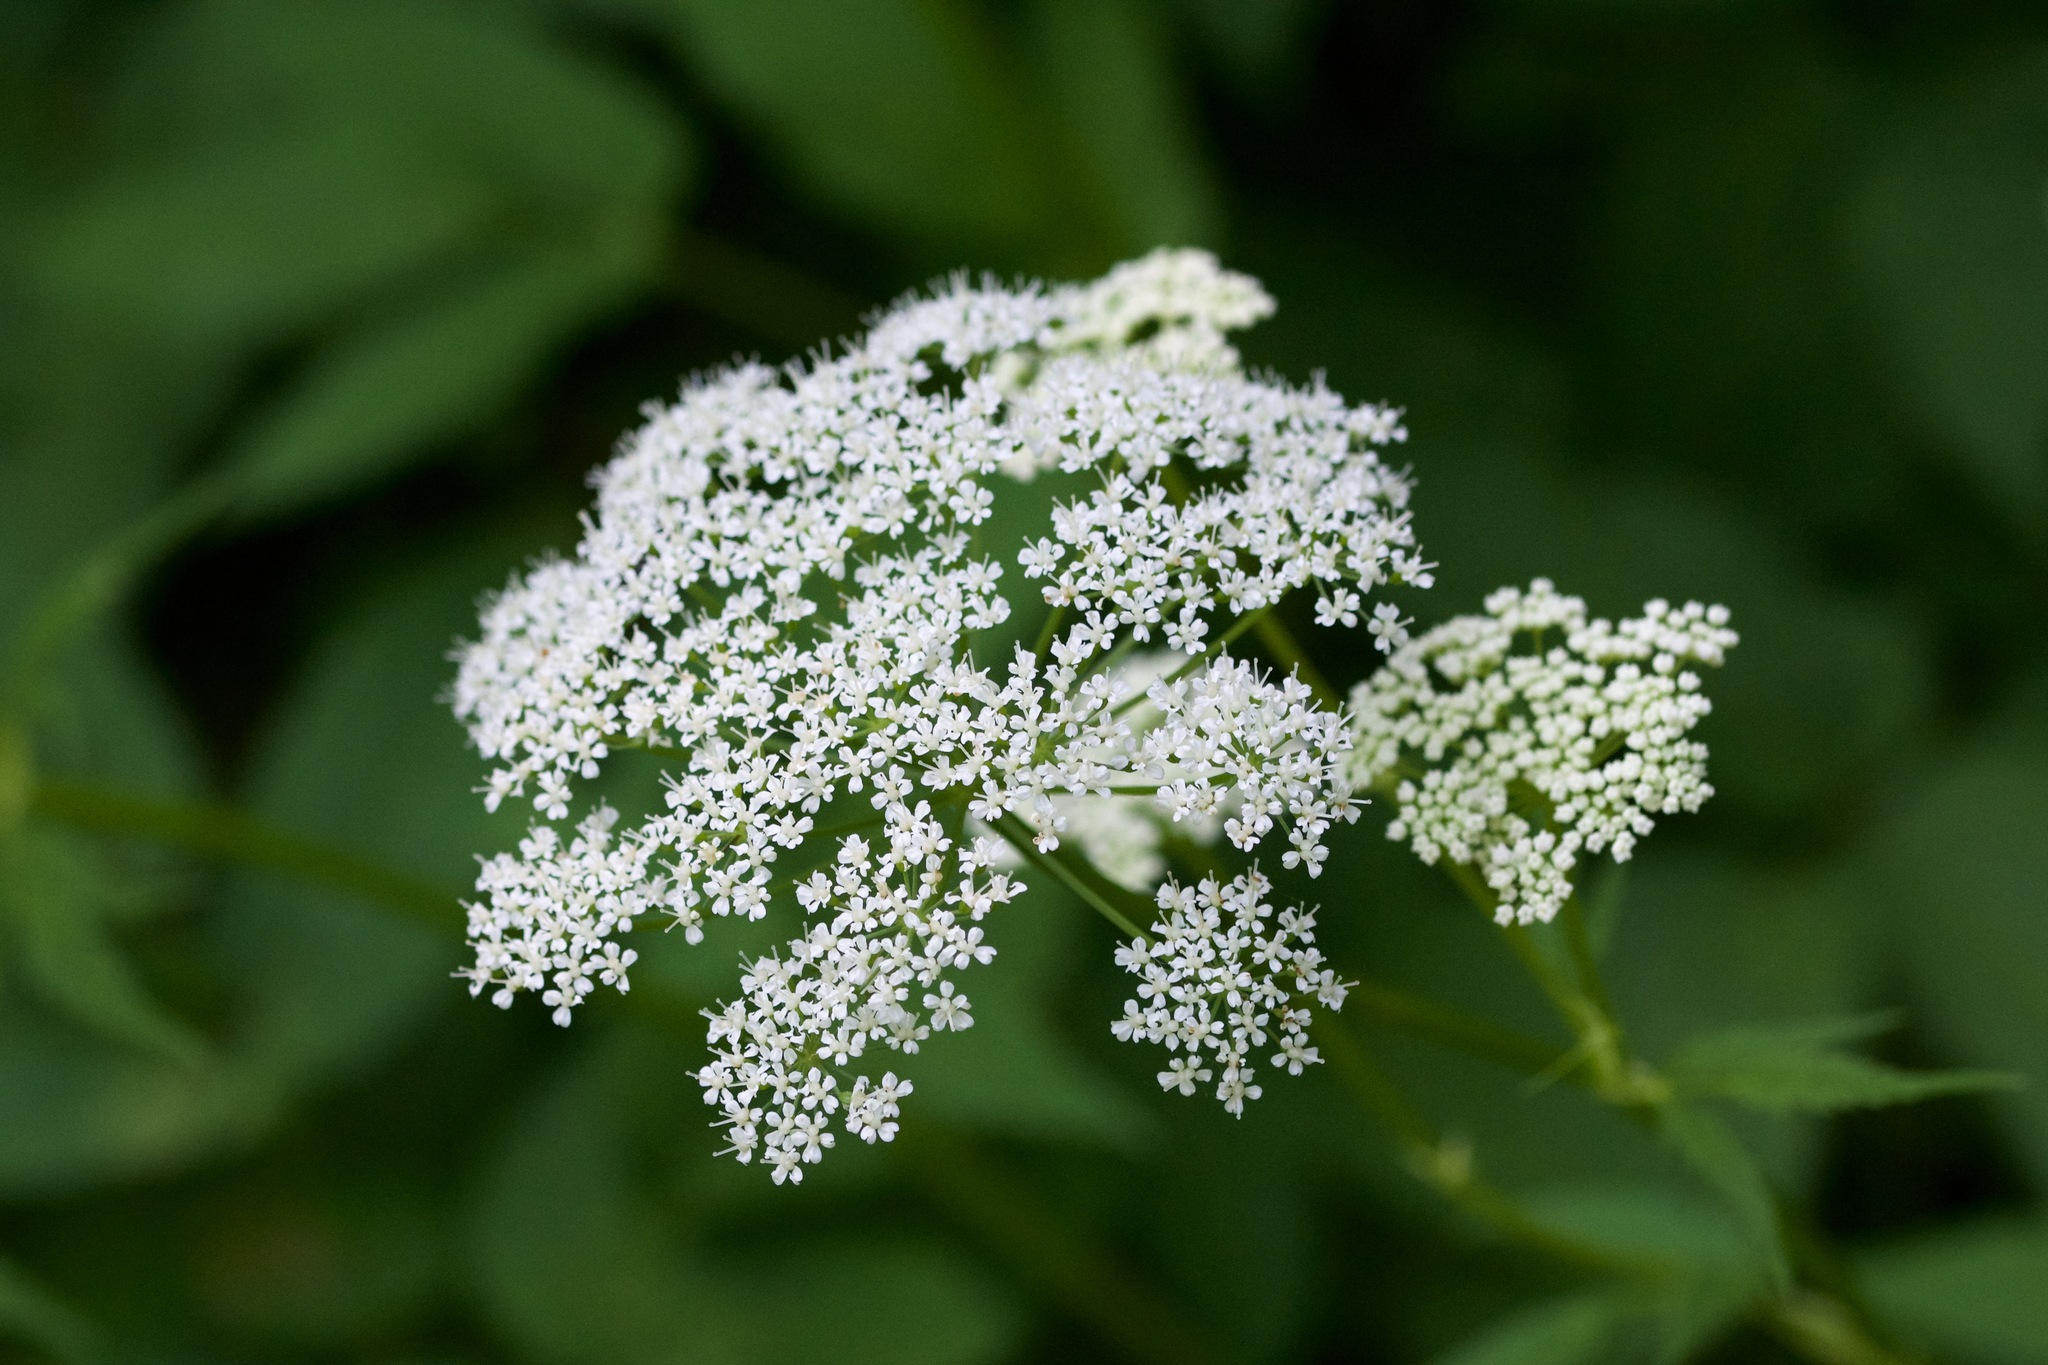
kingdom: Plantae
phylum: Tracheophyta
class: Magnoliopsida
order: Apiales
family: Apiaceae
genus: Aegopodium
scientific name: Aegopodium podagraria
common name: Ground-elder
